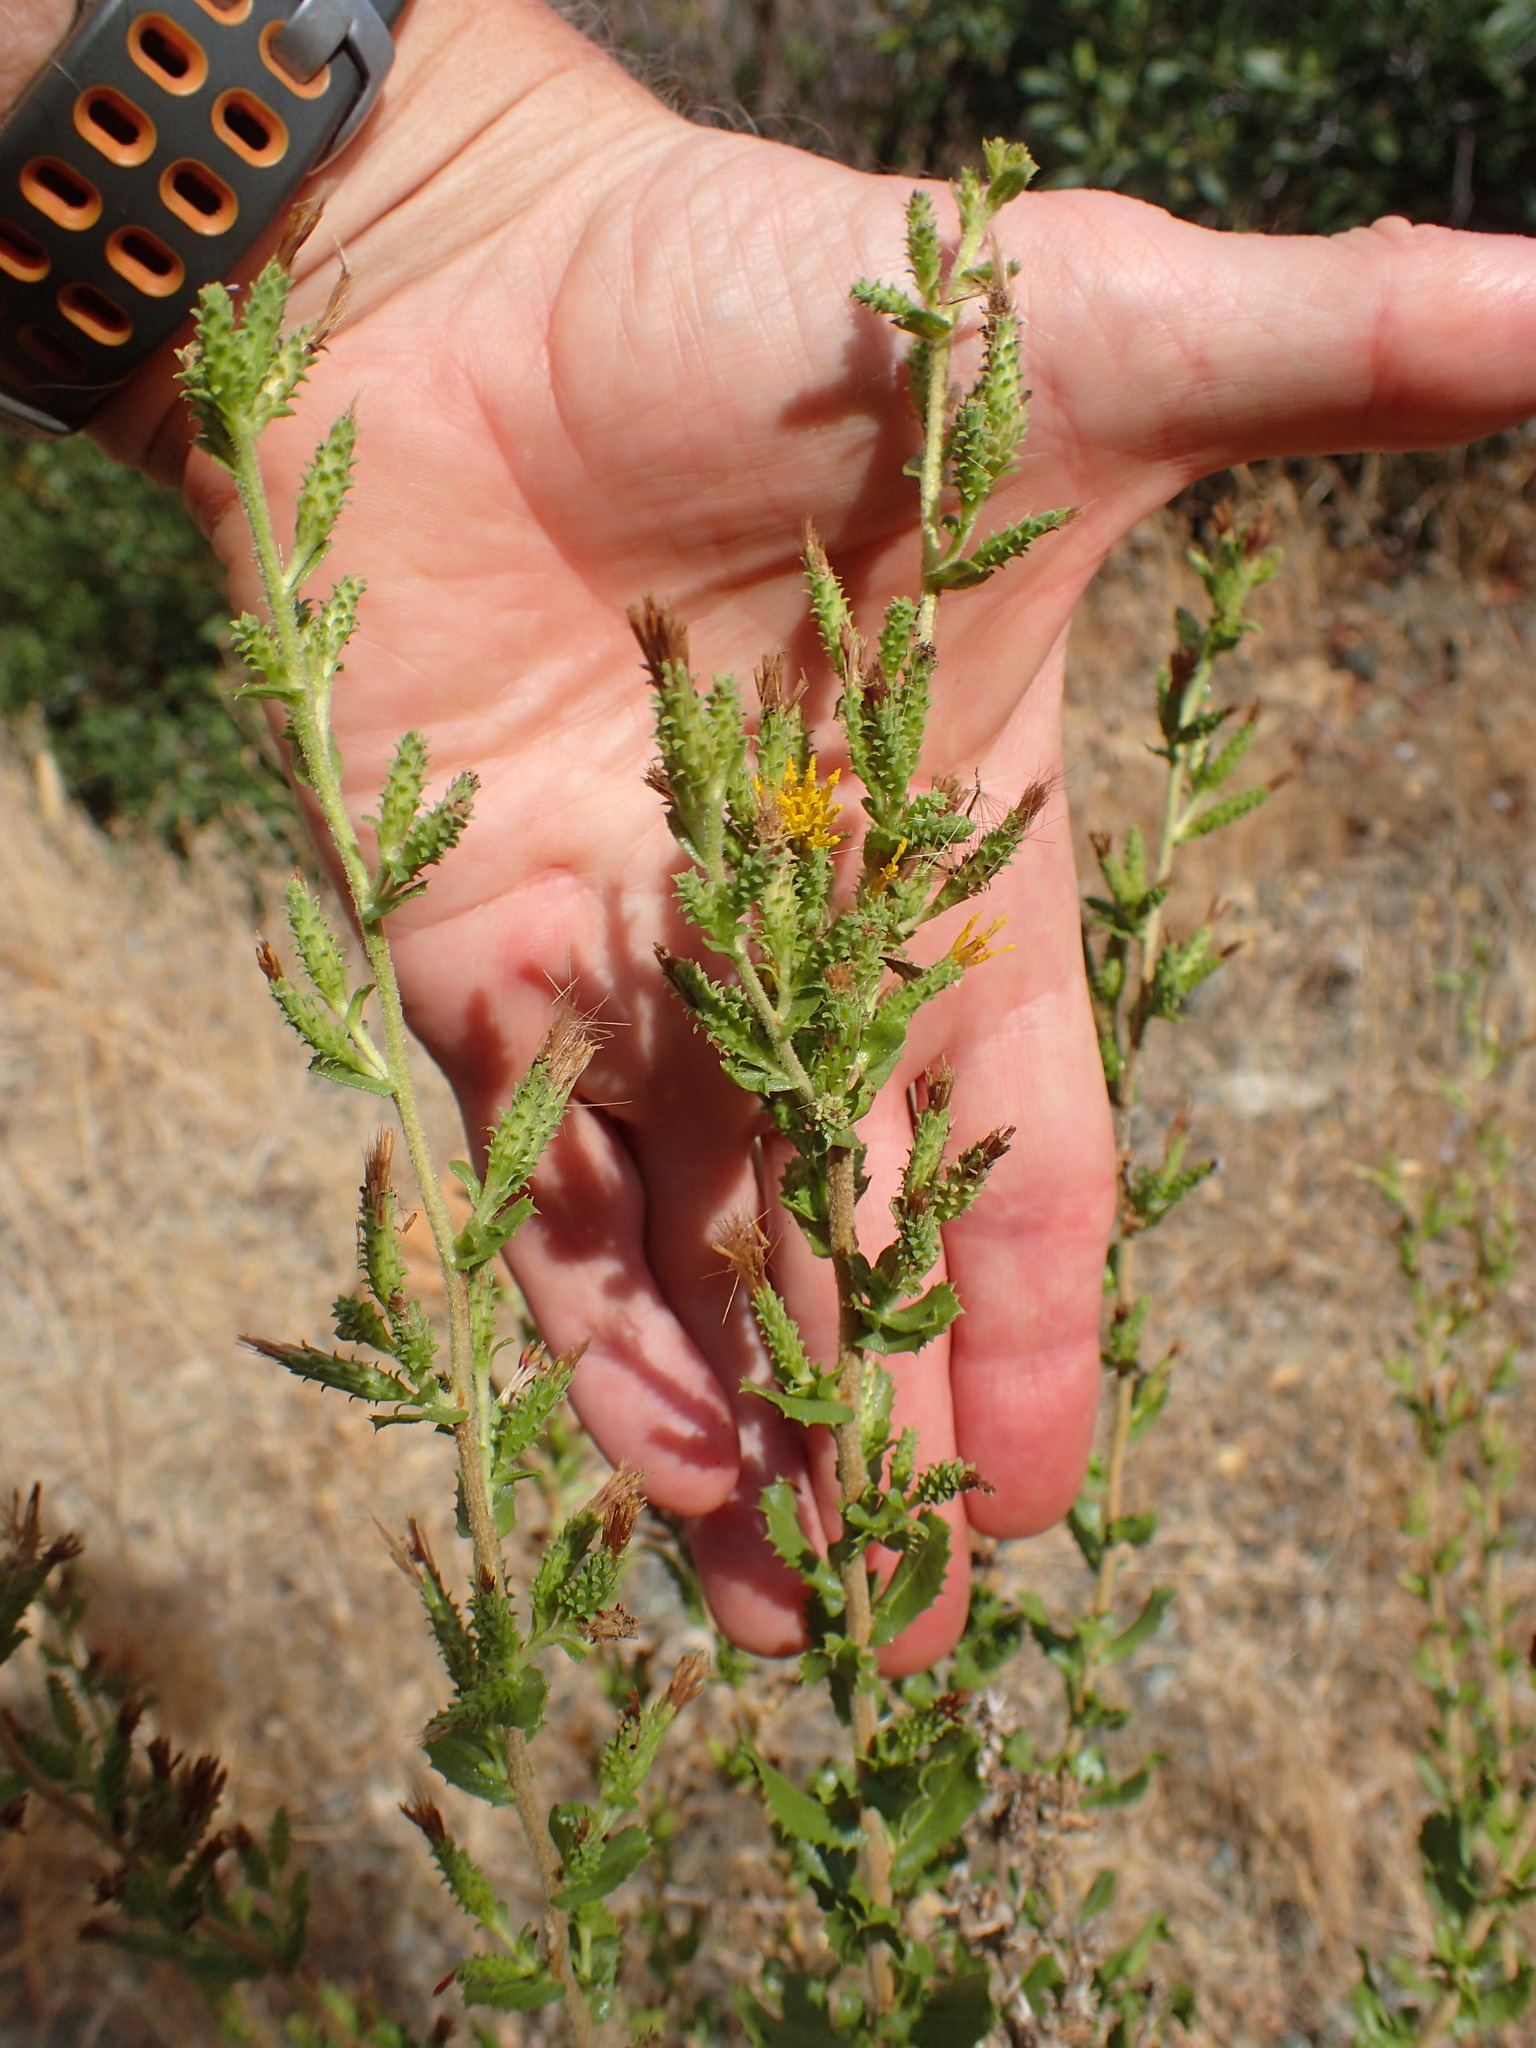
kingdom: Plantae
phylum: Tracheophyta
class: Magnoliopsida
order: Asterales
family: Asteraceae
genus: Hazardia
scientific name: Hazardia squarrosa
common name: Saw-tooth goldenbush
